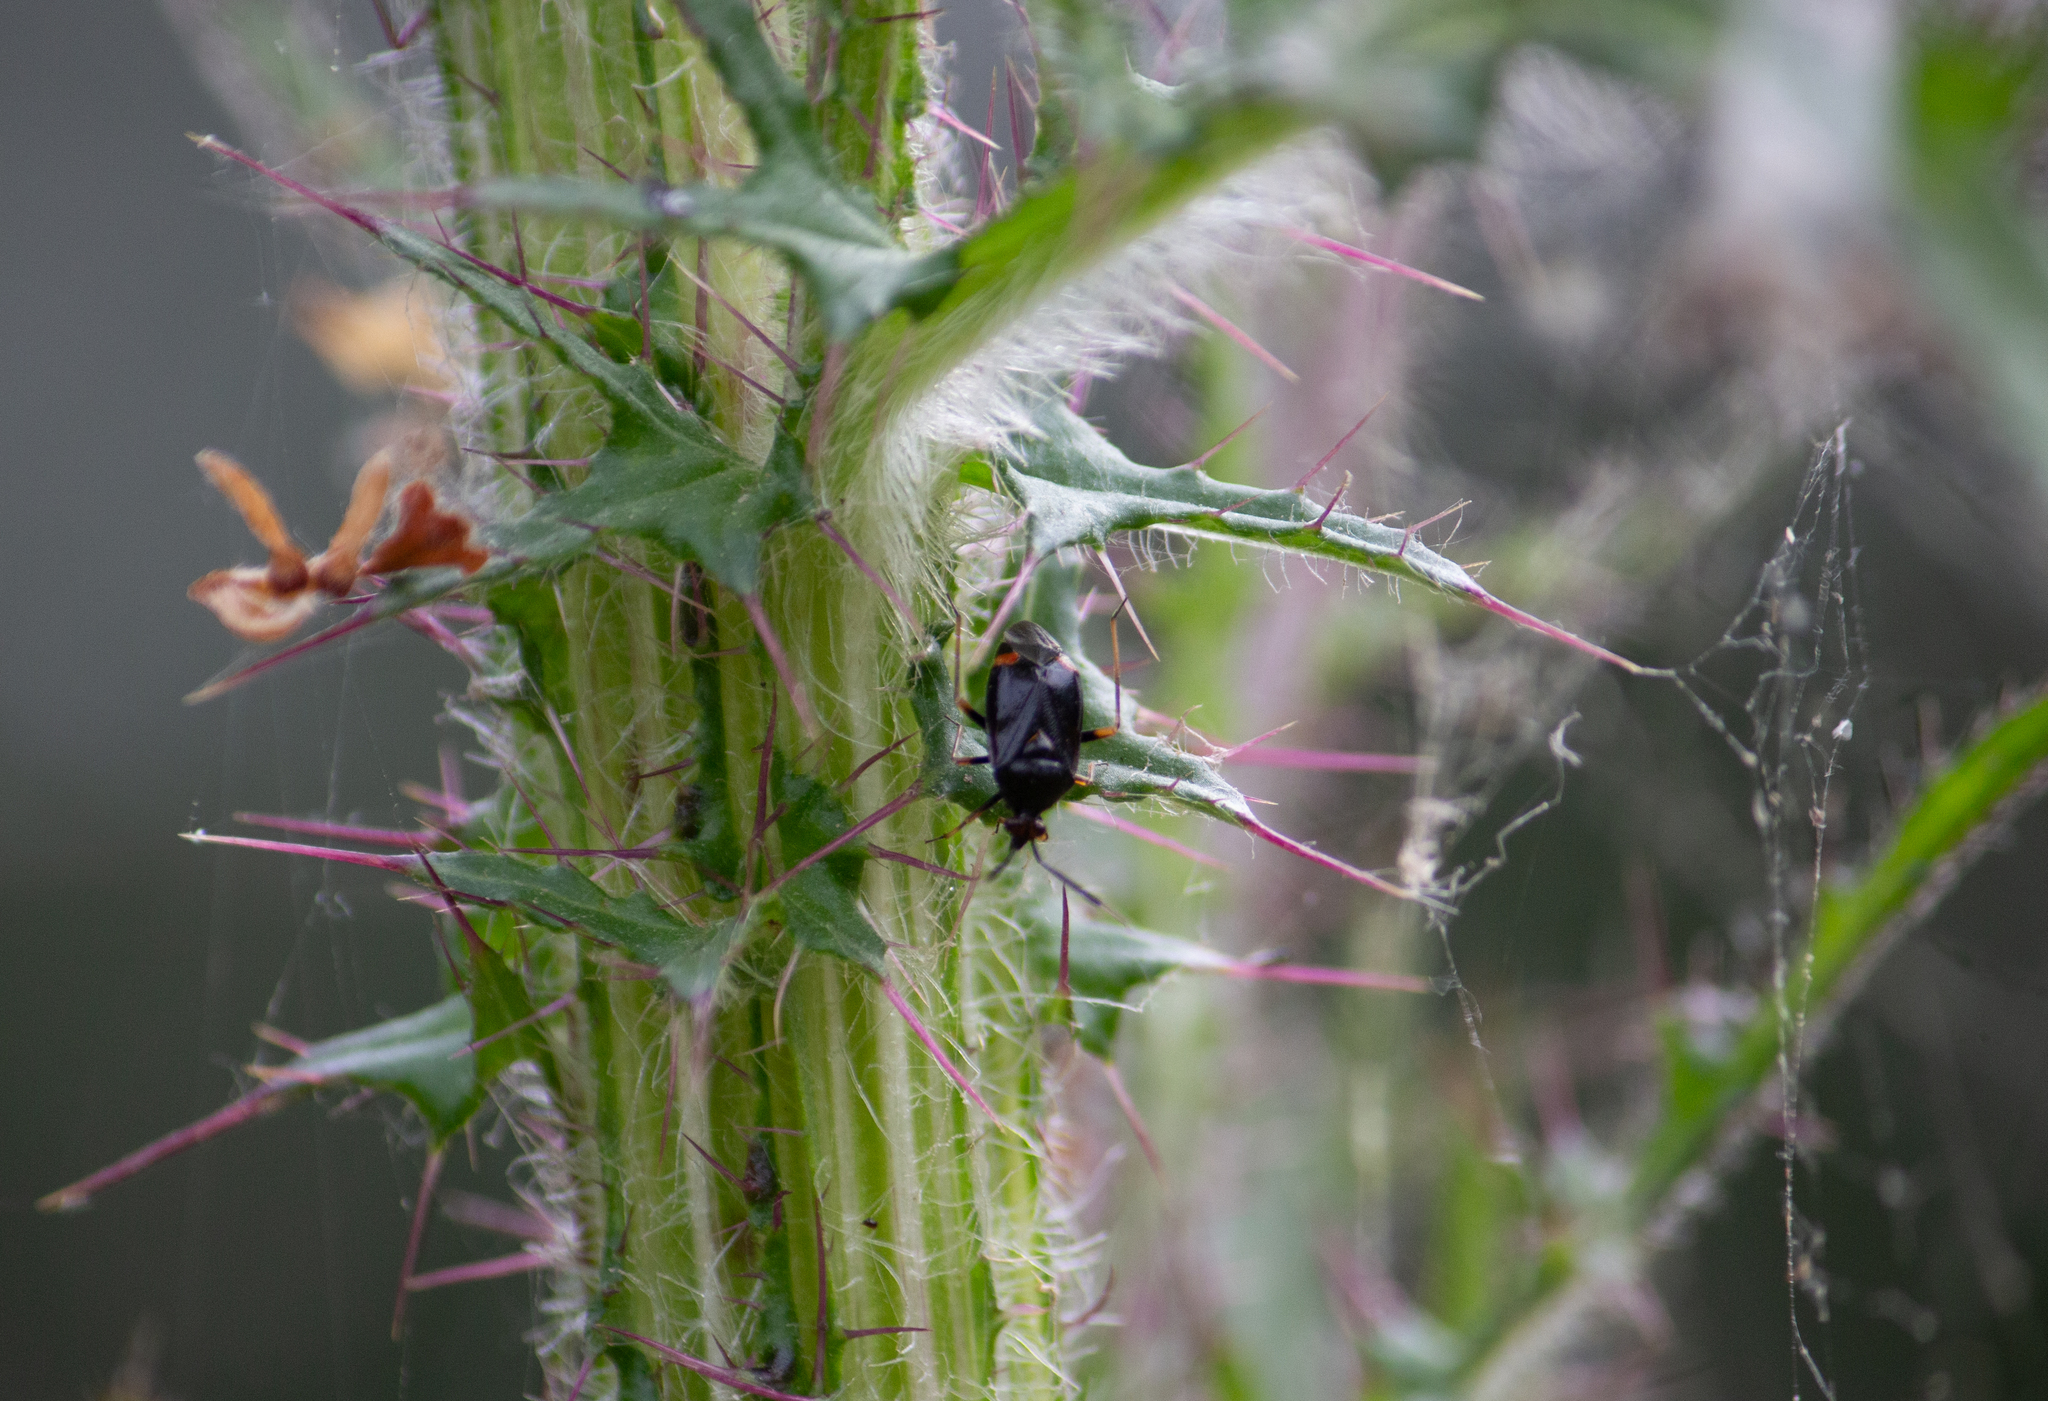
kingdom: Animalia
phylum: Arthropoda
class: Insecta
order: Hemiptera
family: Miridae
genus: Deraeocoris
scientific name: Deraeocoris ruber
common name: Plant bug
